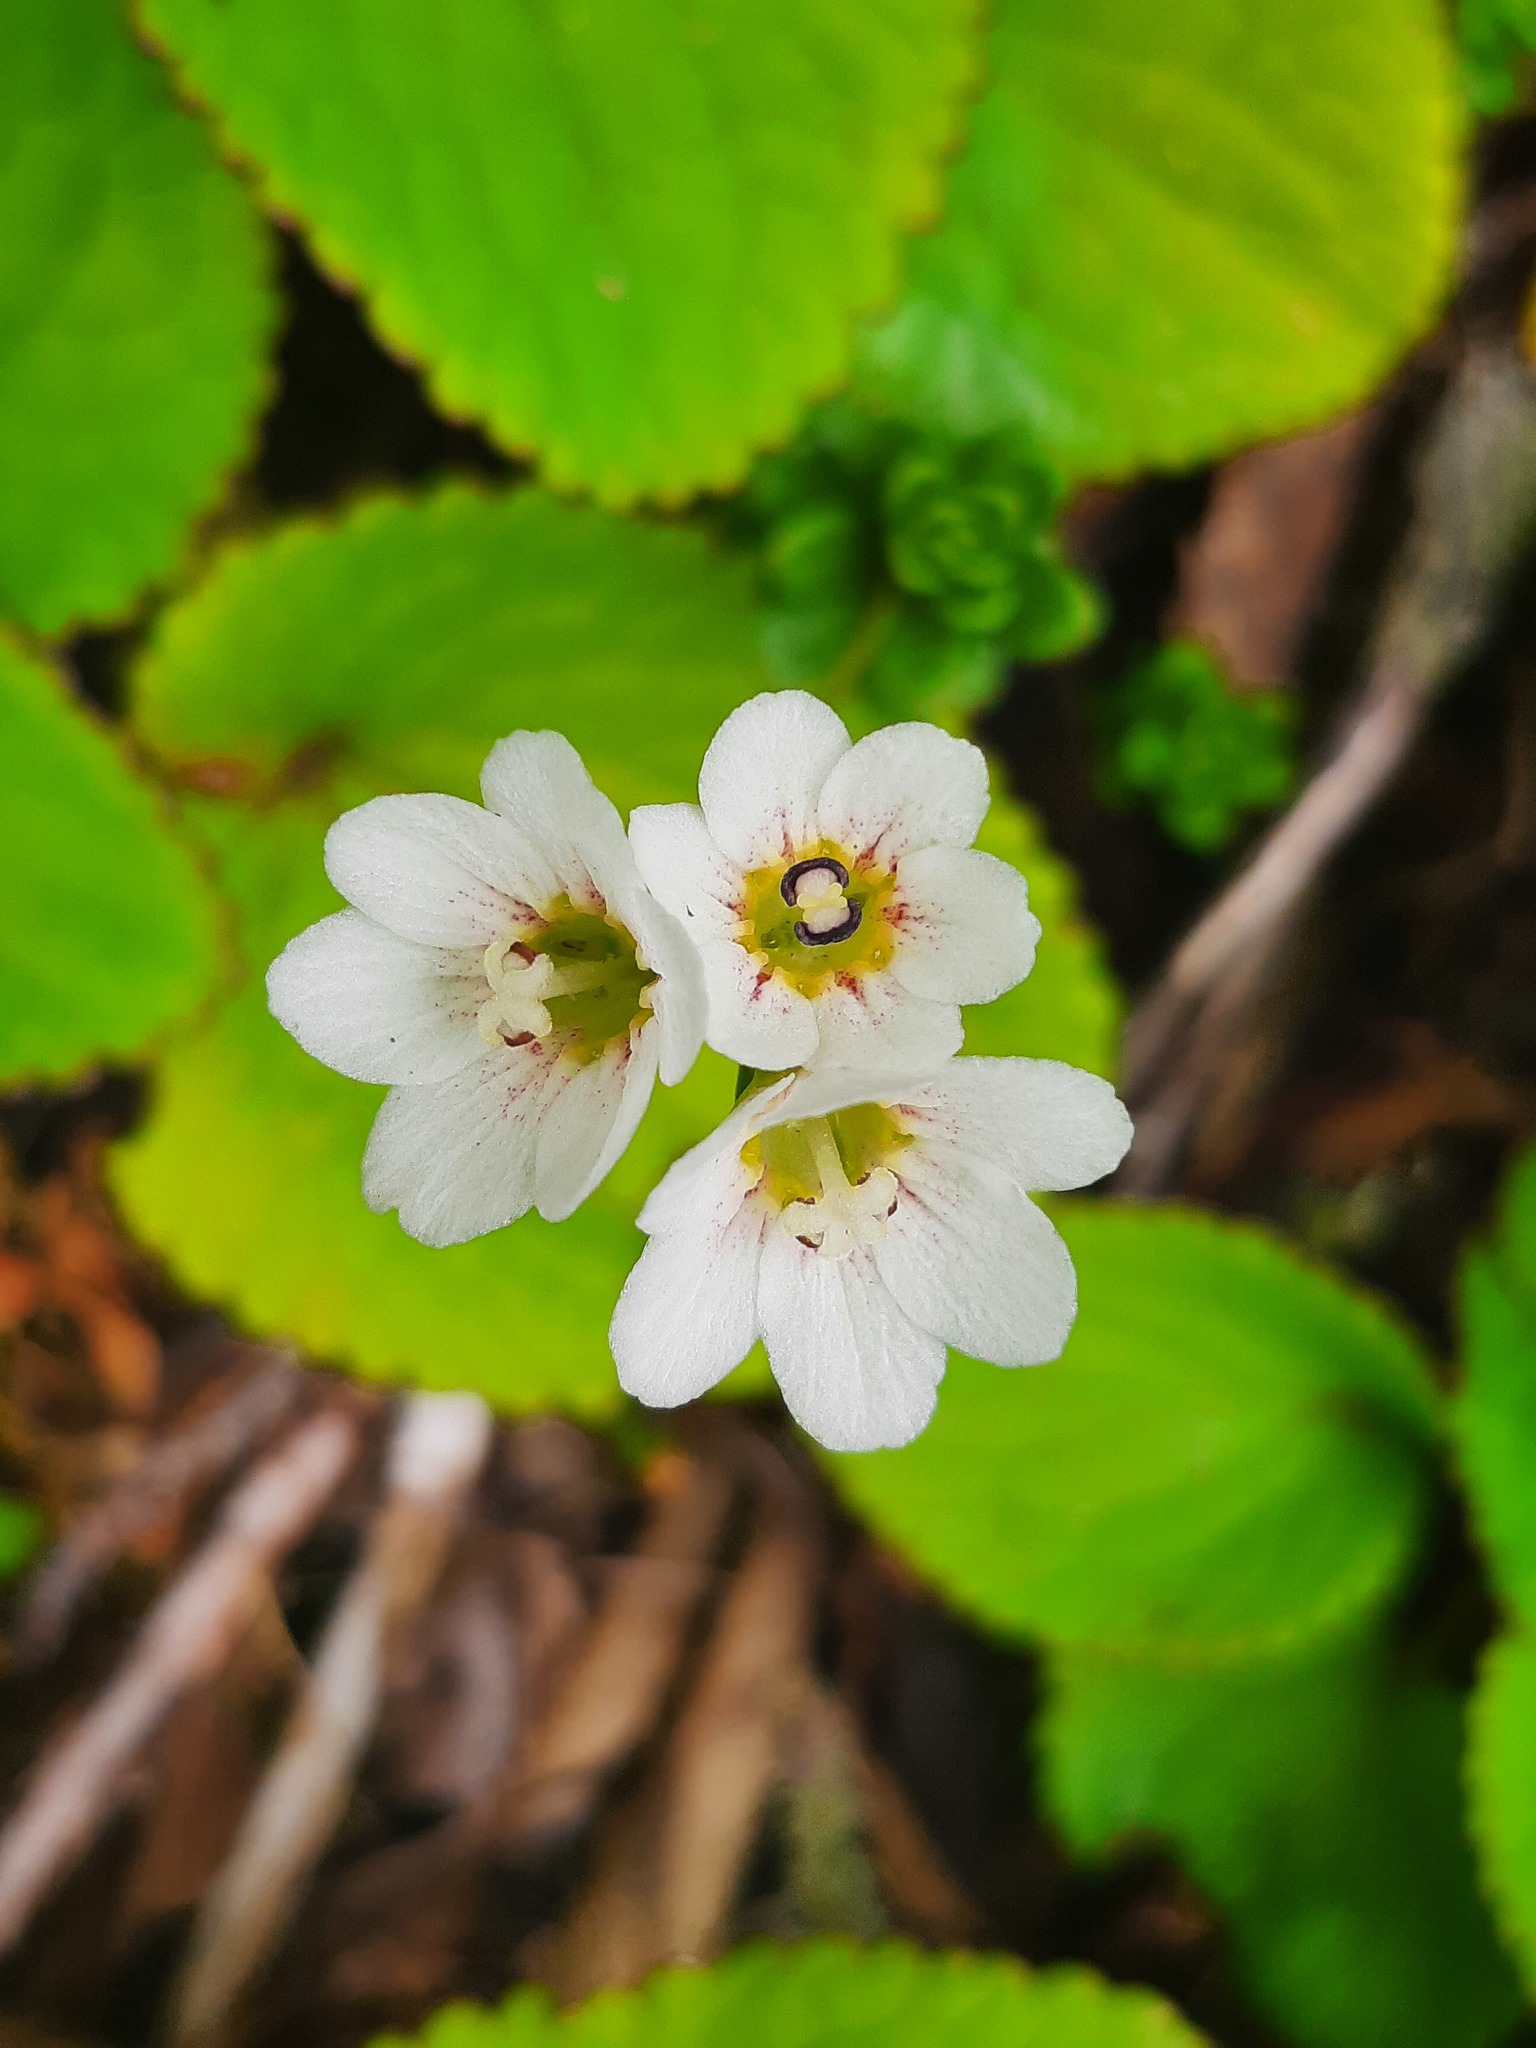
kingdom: Plantae
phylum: Tracheophyta
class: Magnoliopsida
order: Asterales
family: Stylidiaceae
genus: Forstera
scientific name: Forstera tenella
